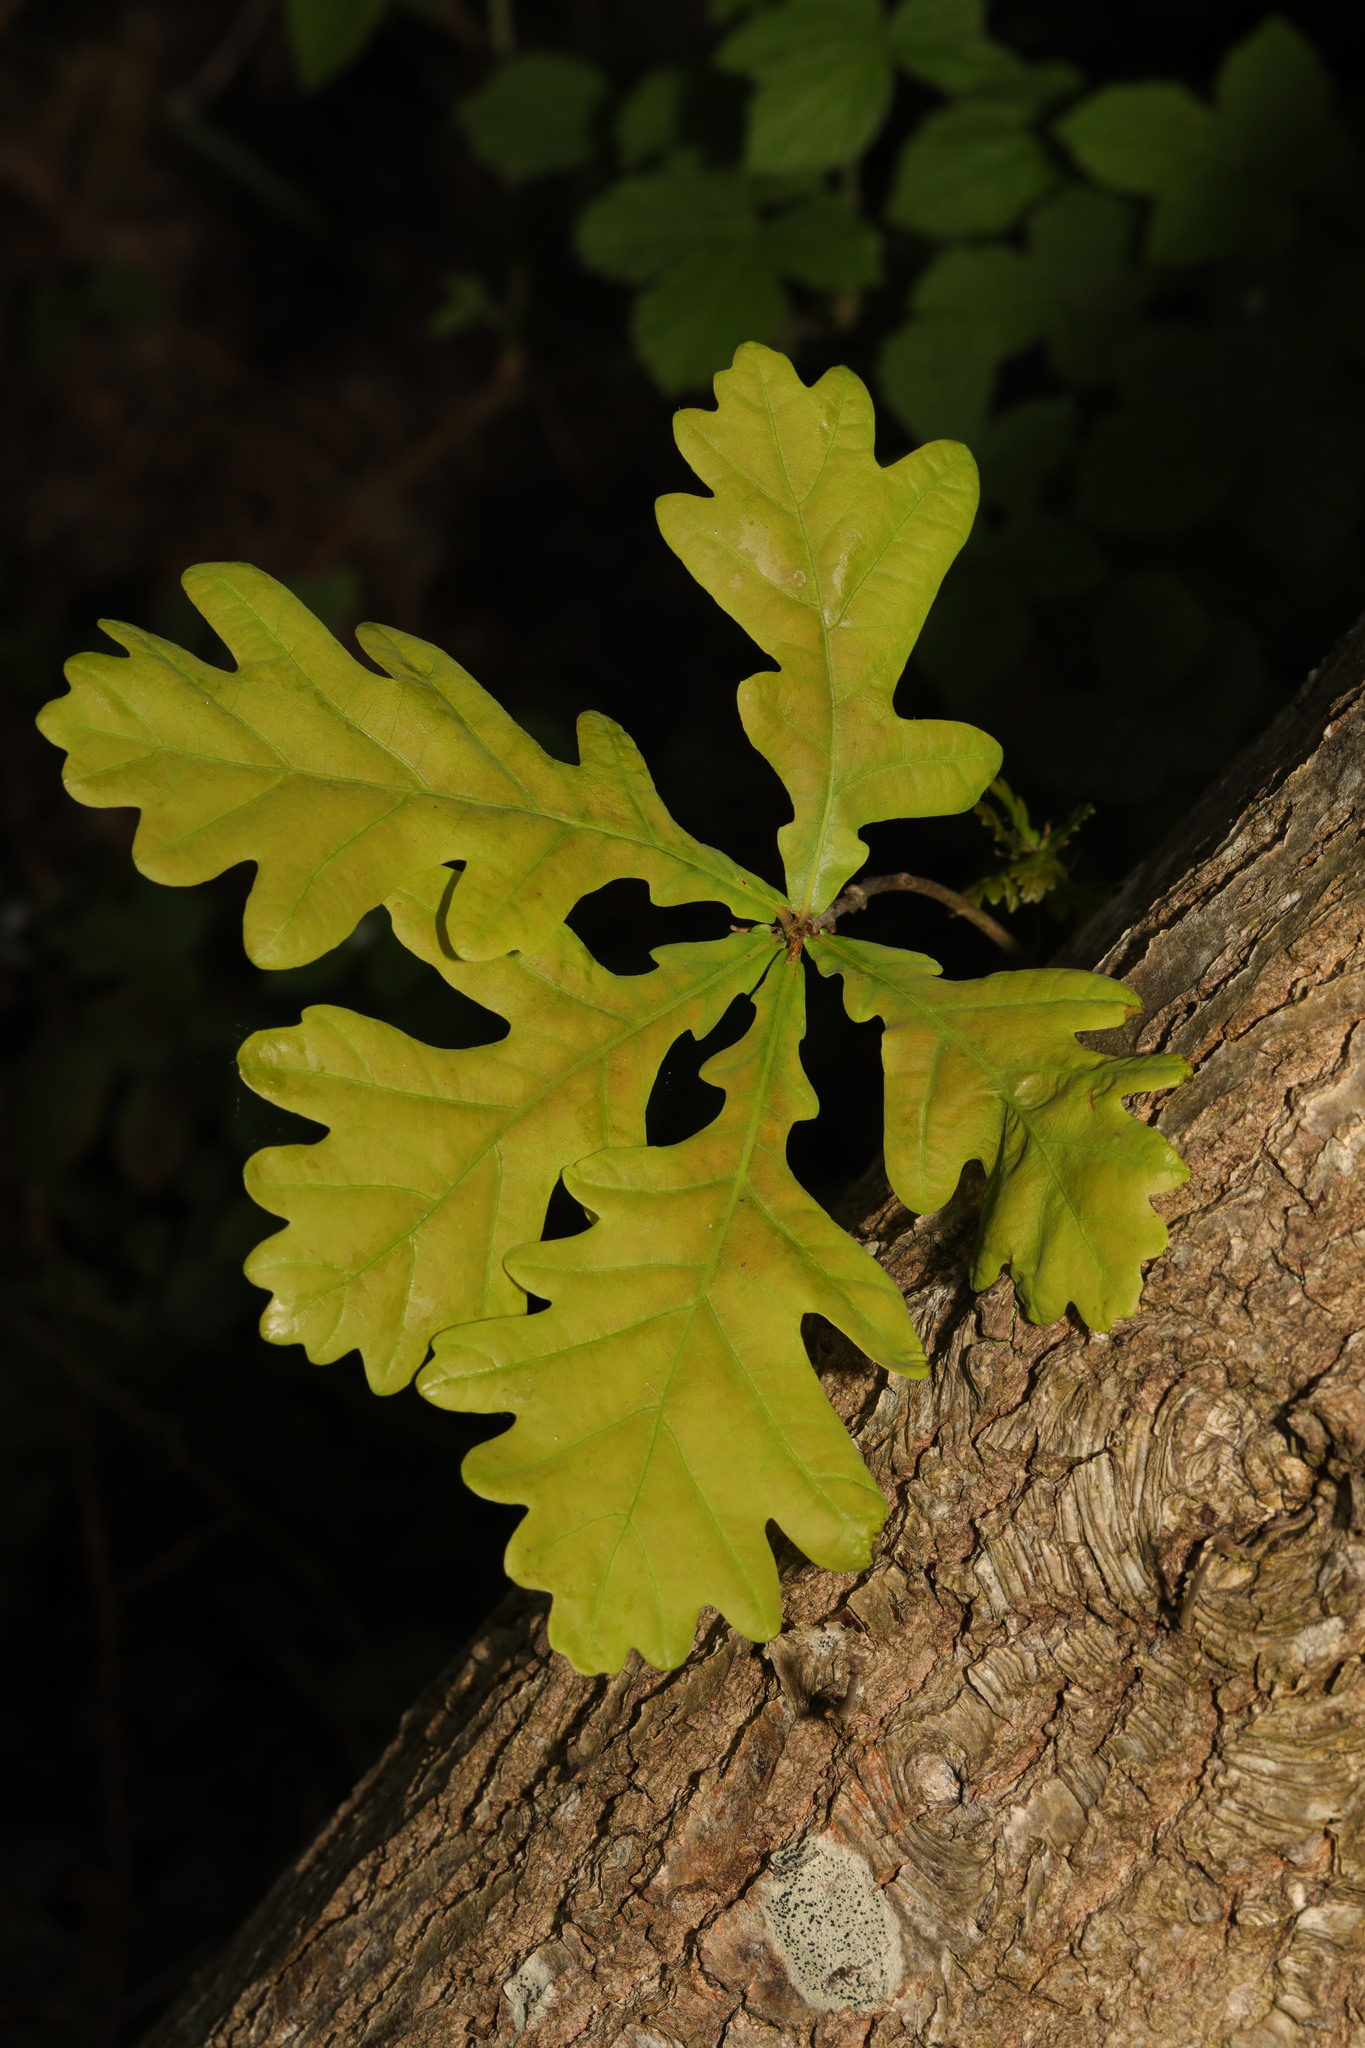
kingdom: Plantae
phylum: Tracheophyta
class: Magnoliopsida
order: Fagales
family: Fagaceae
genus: Quercus
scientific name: Quercus robur
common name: Pedunculate oak
